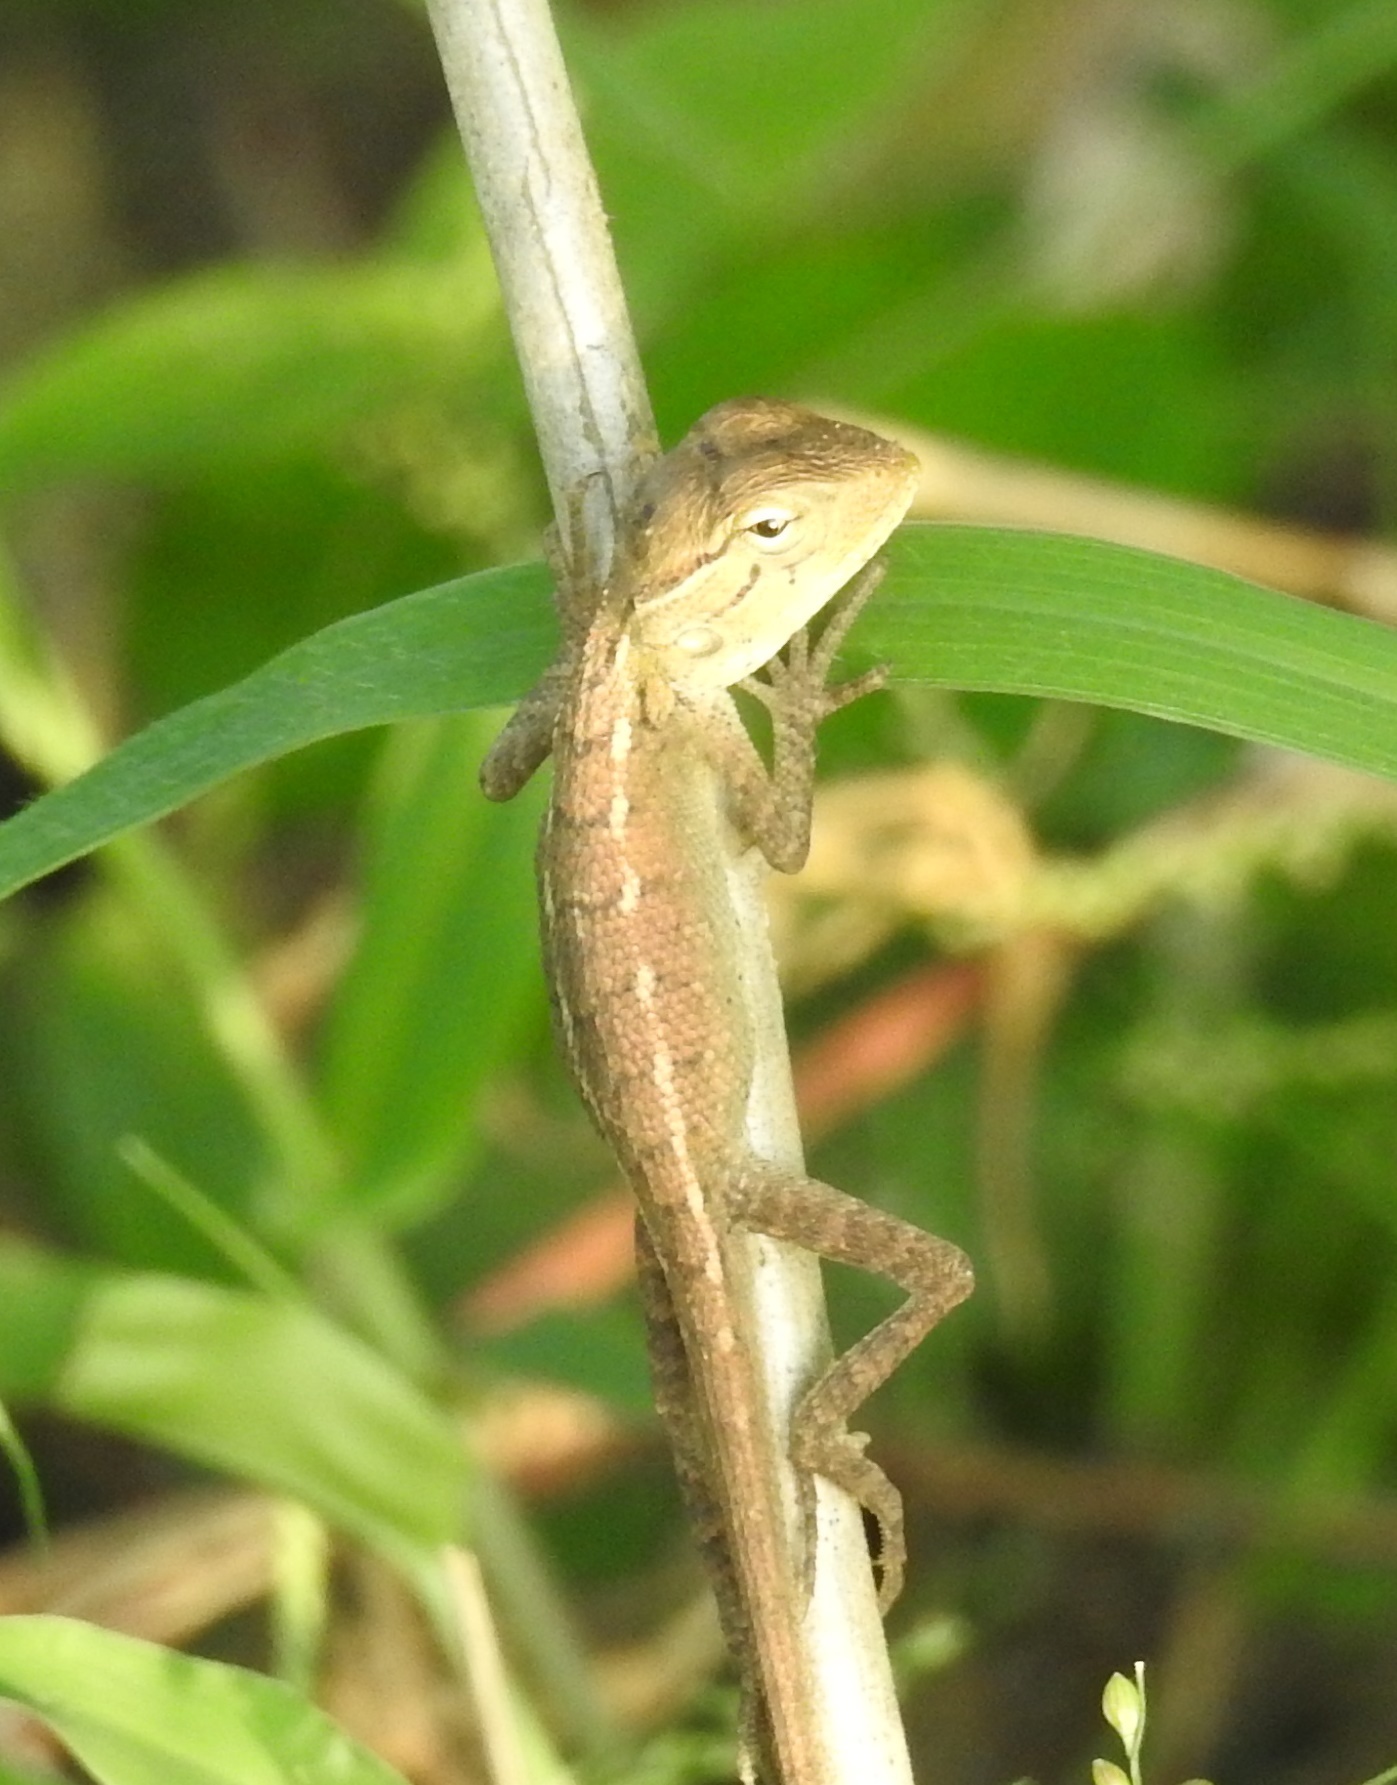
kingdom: Animalia
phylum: Chordata
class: Squamata
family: Agamidae
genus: Calotes
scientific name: Calotes versicolor
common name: Oriental garden lizard
